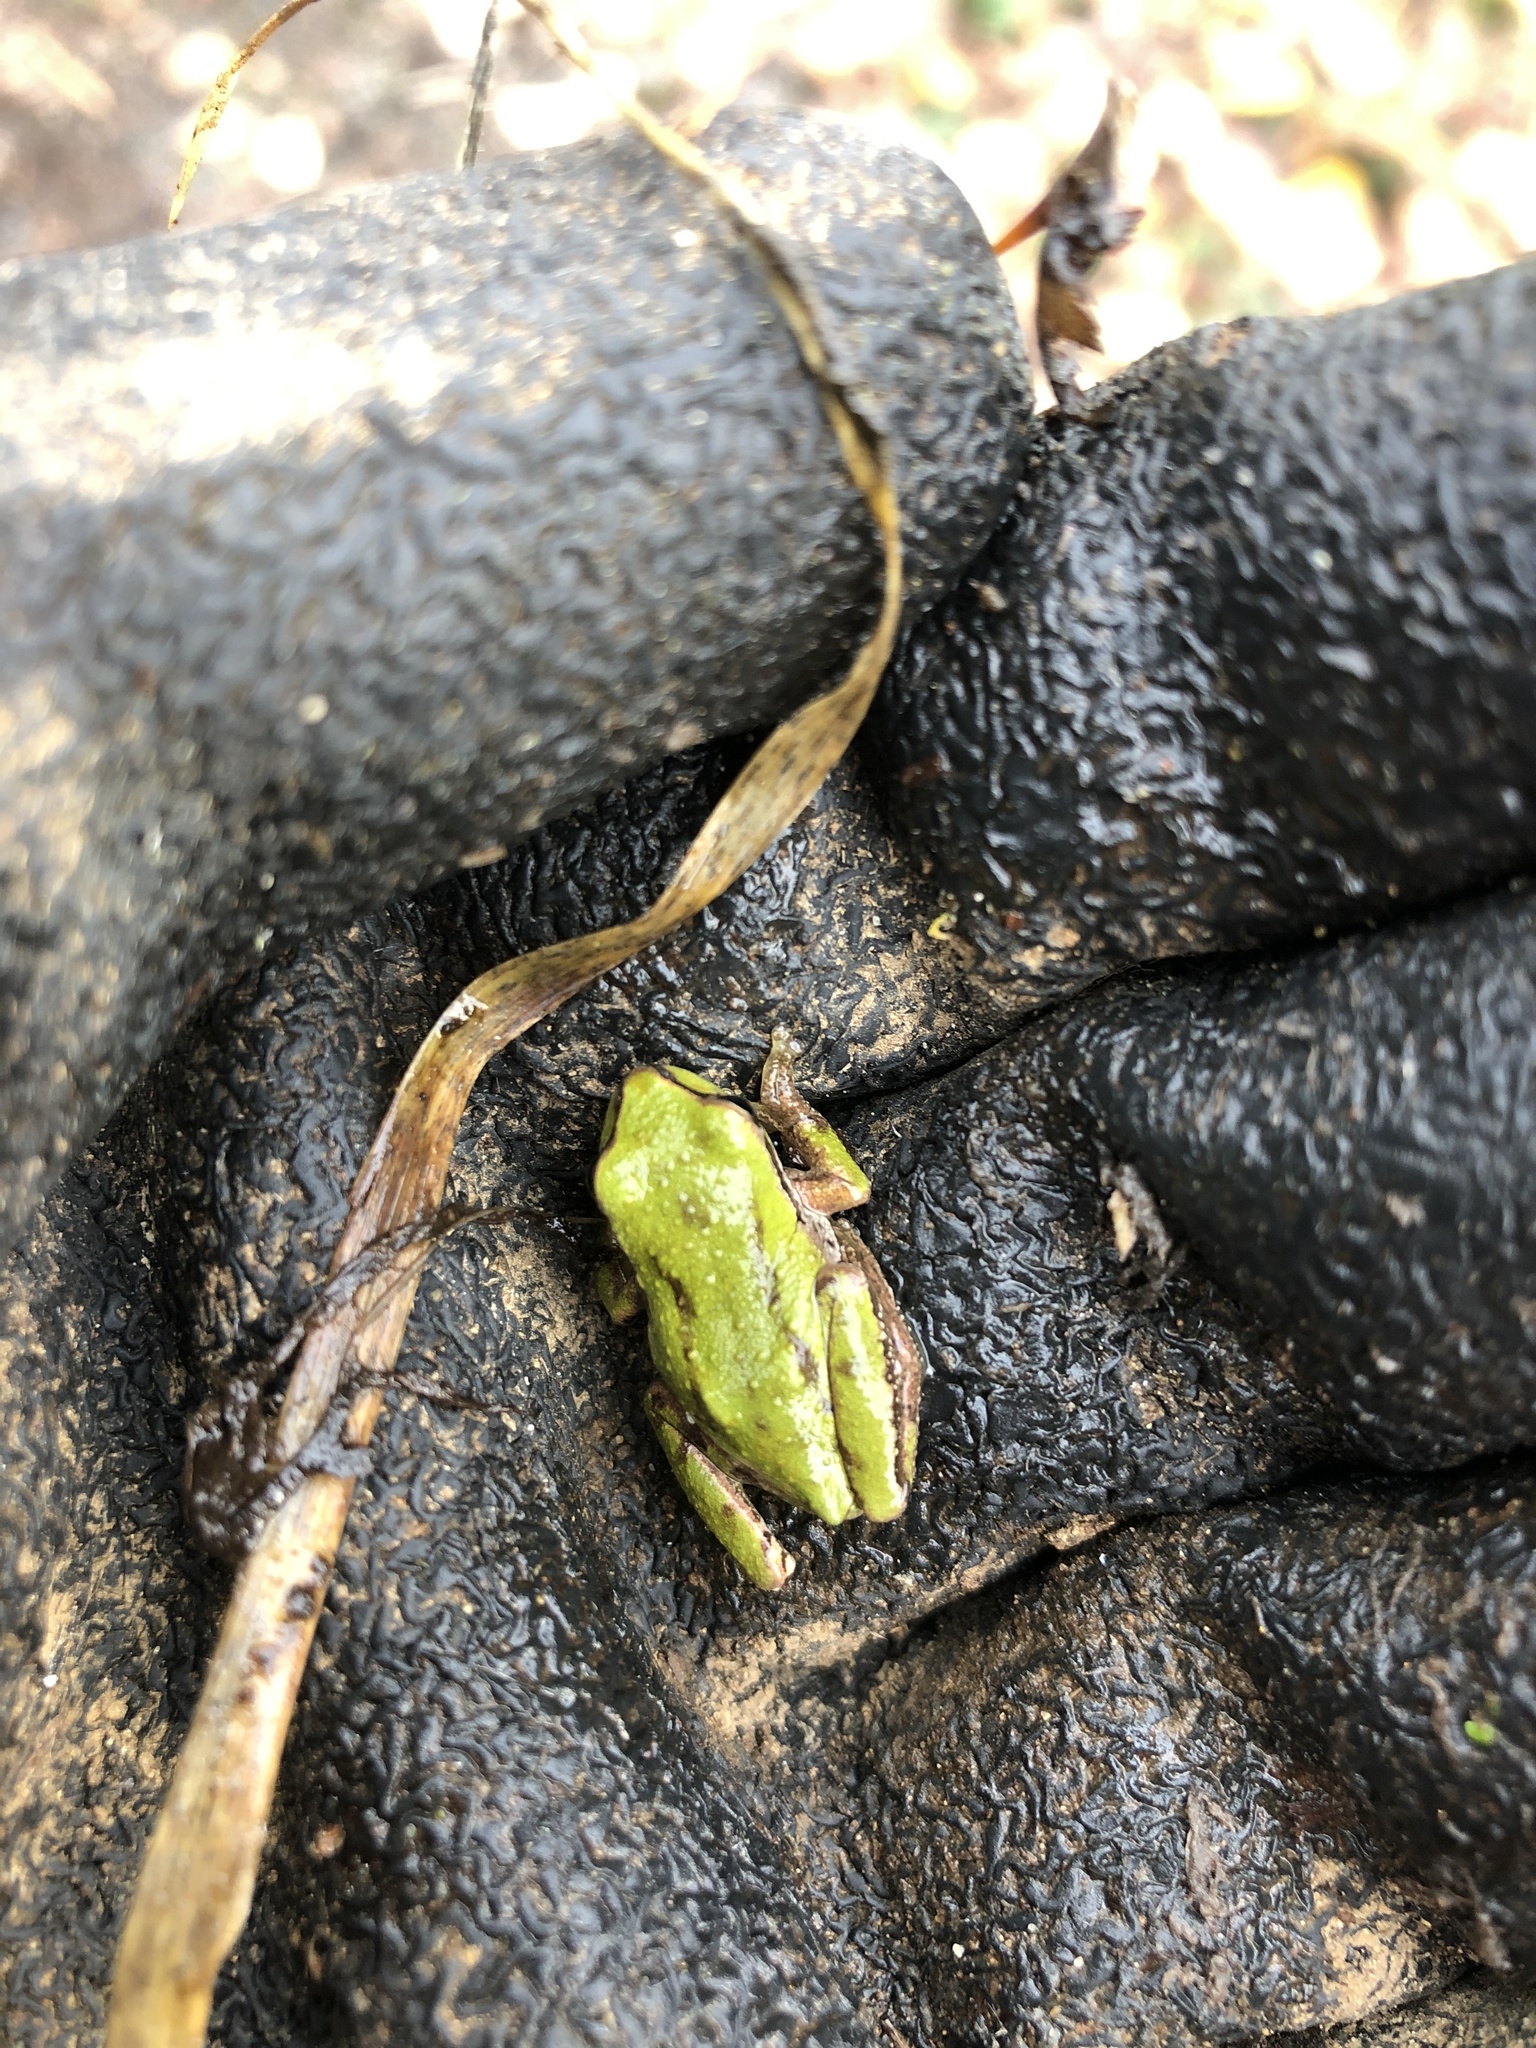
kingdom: Animalia
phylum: Chordata
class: Amphibia
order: Anura
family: Hylidae
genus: Pseudacris
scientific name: Pseudacris regilla
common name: Pacific chorus frog
